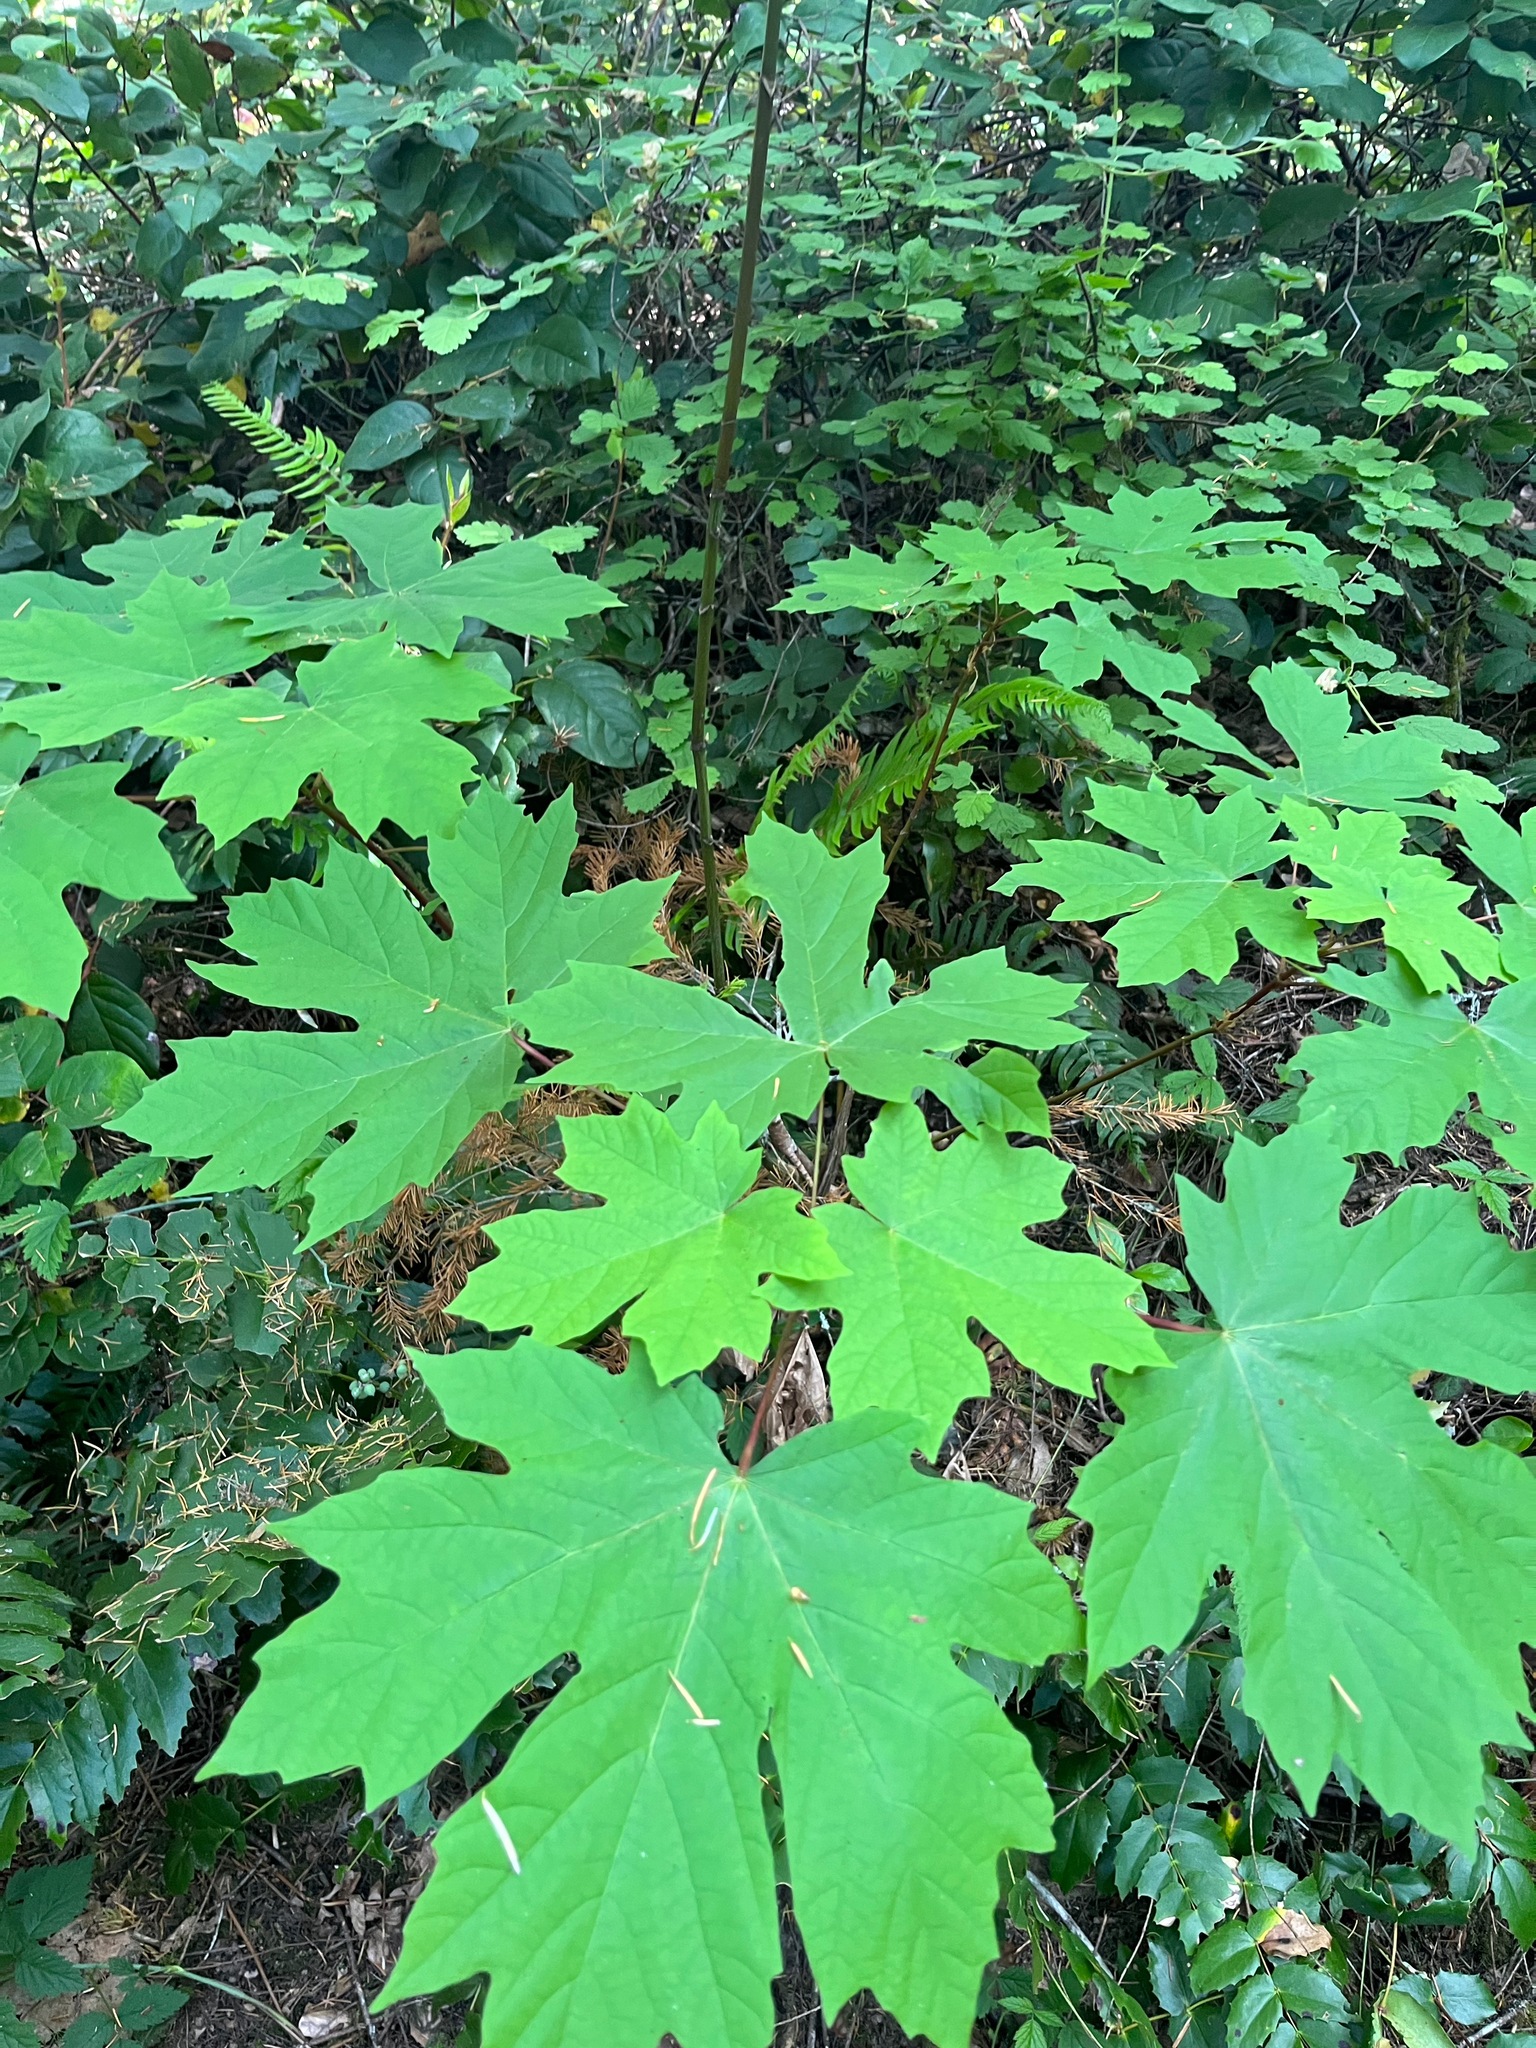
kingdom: Plantae
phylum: Tracheophyta
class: Magnoliopsida
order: Sapindales
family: Sapindaceae
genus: Acer
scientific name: Acer macrophyllum
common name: Oregon maple
